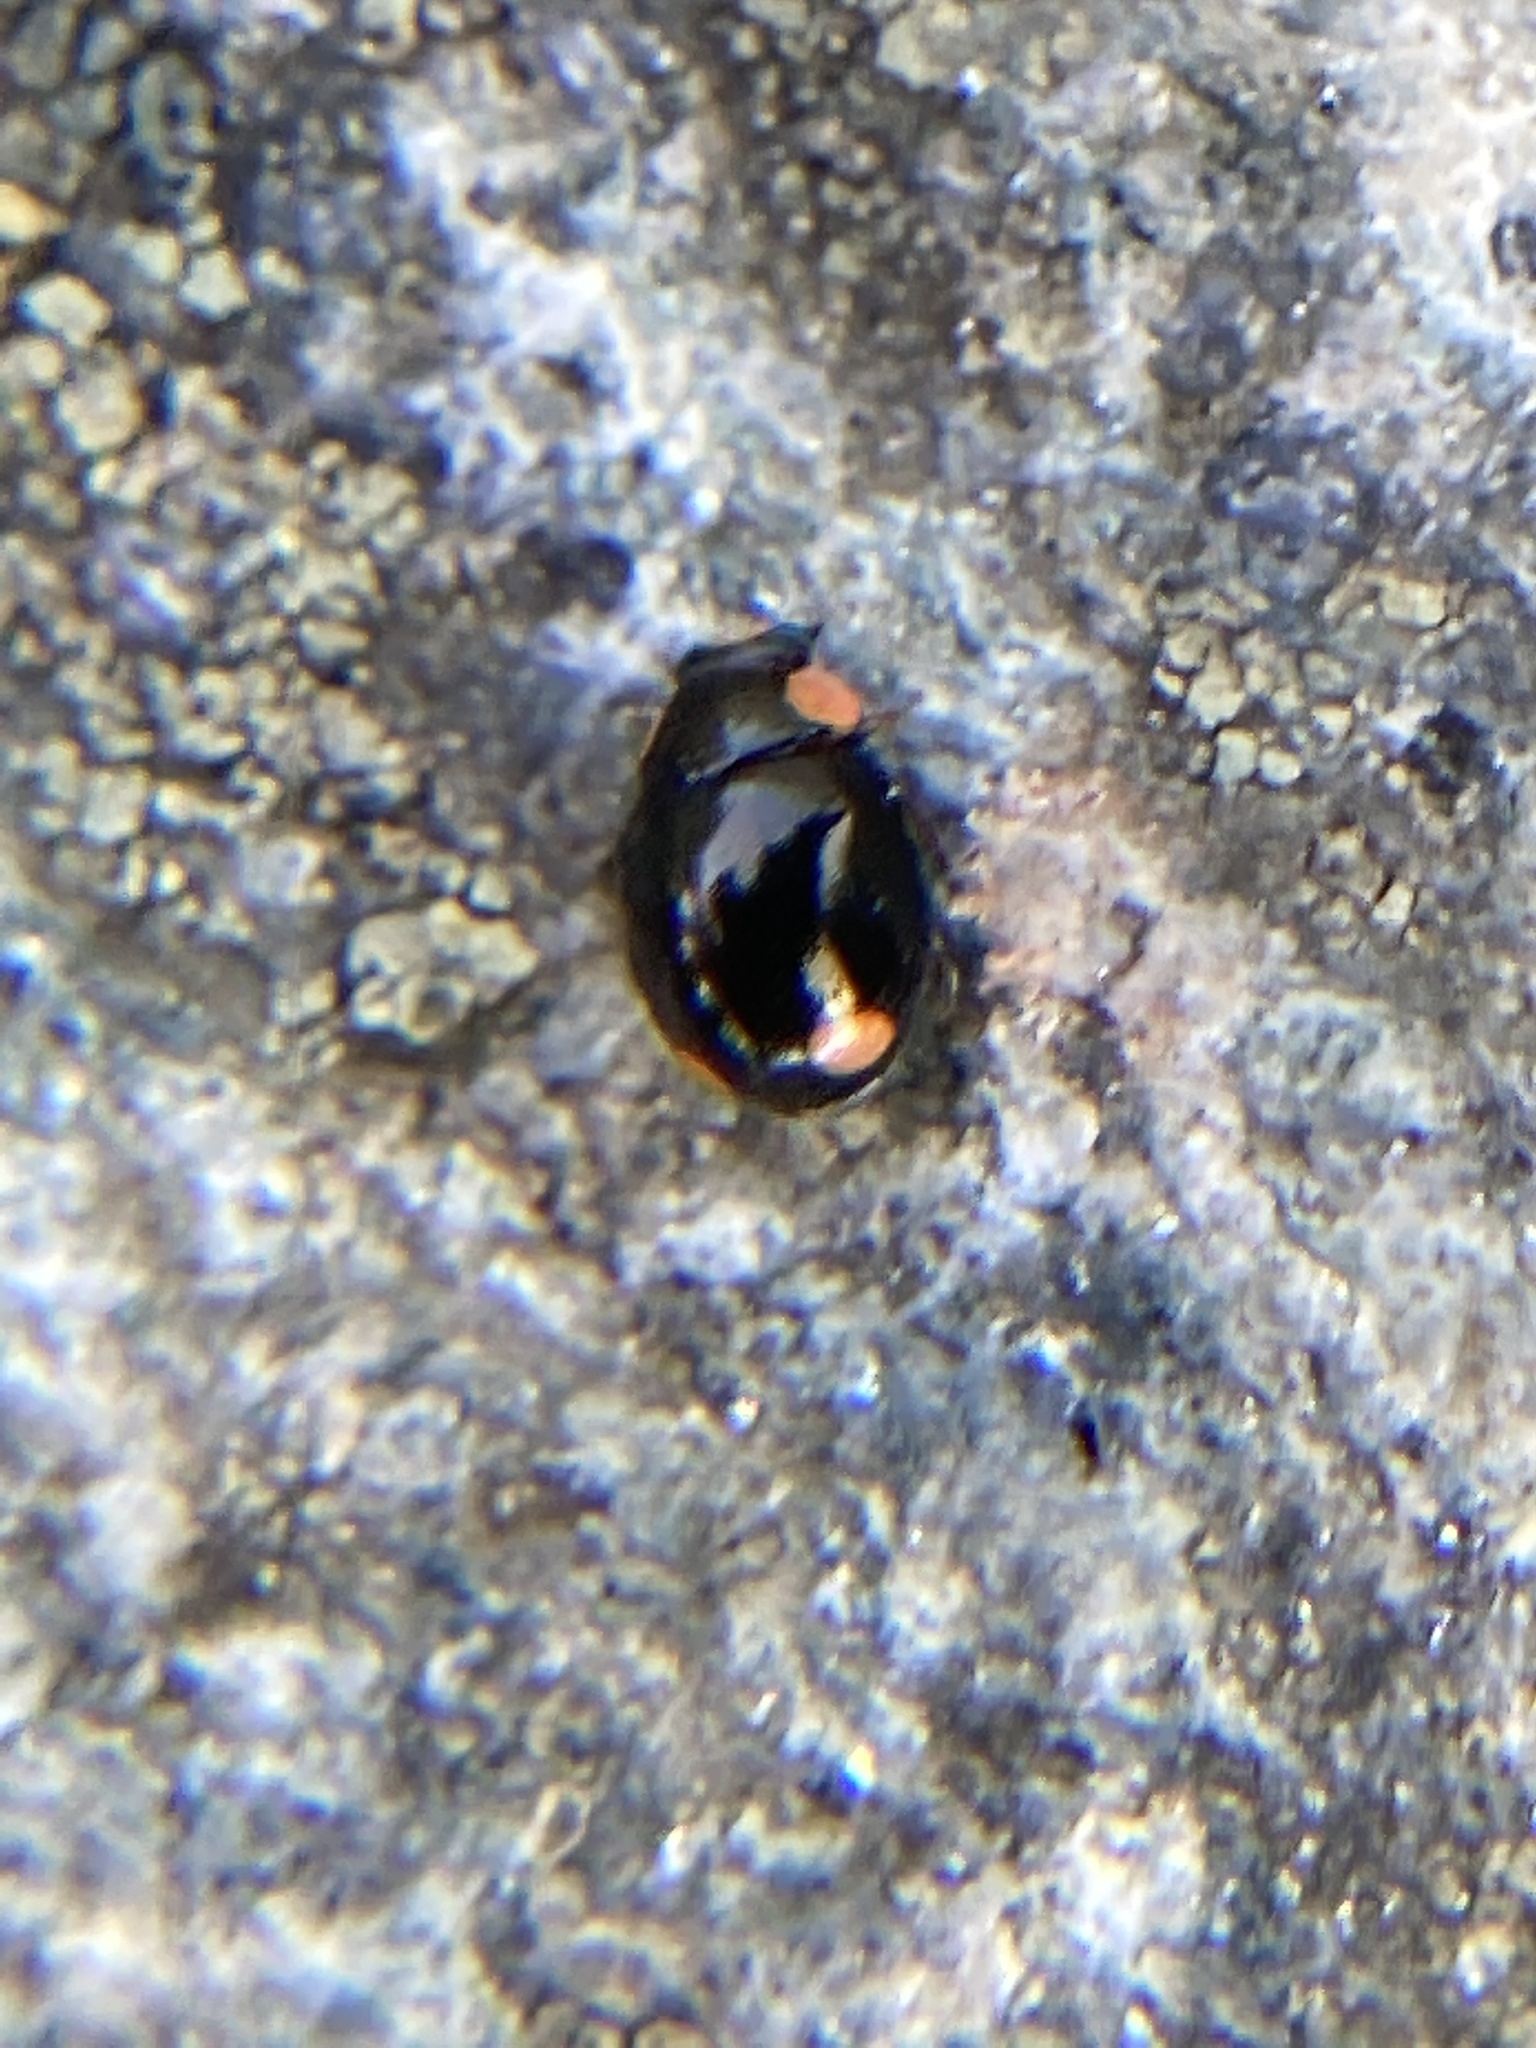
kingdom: Animalia
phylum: Arthropoda
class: Insecta
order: Coleoptera
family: Coccinellidae
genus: Hyperaspis
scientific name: Hyperaspis bigeminata
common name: Bigeminate sigil lady beetle
